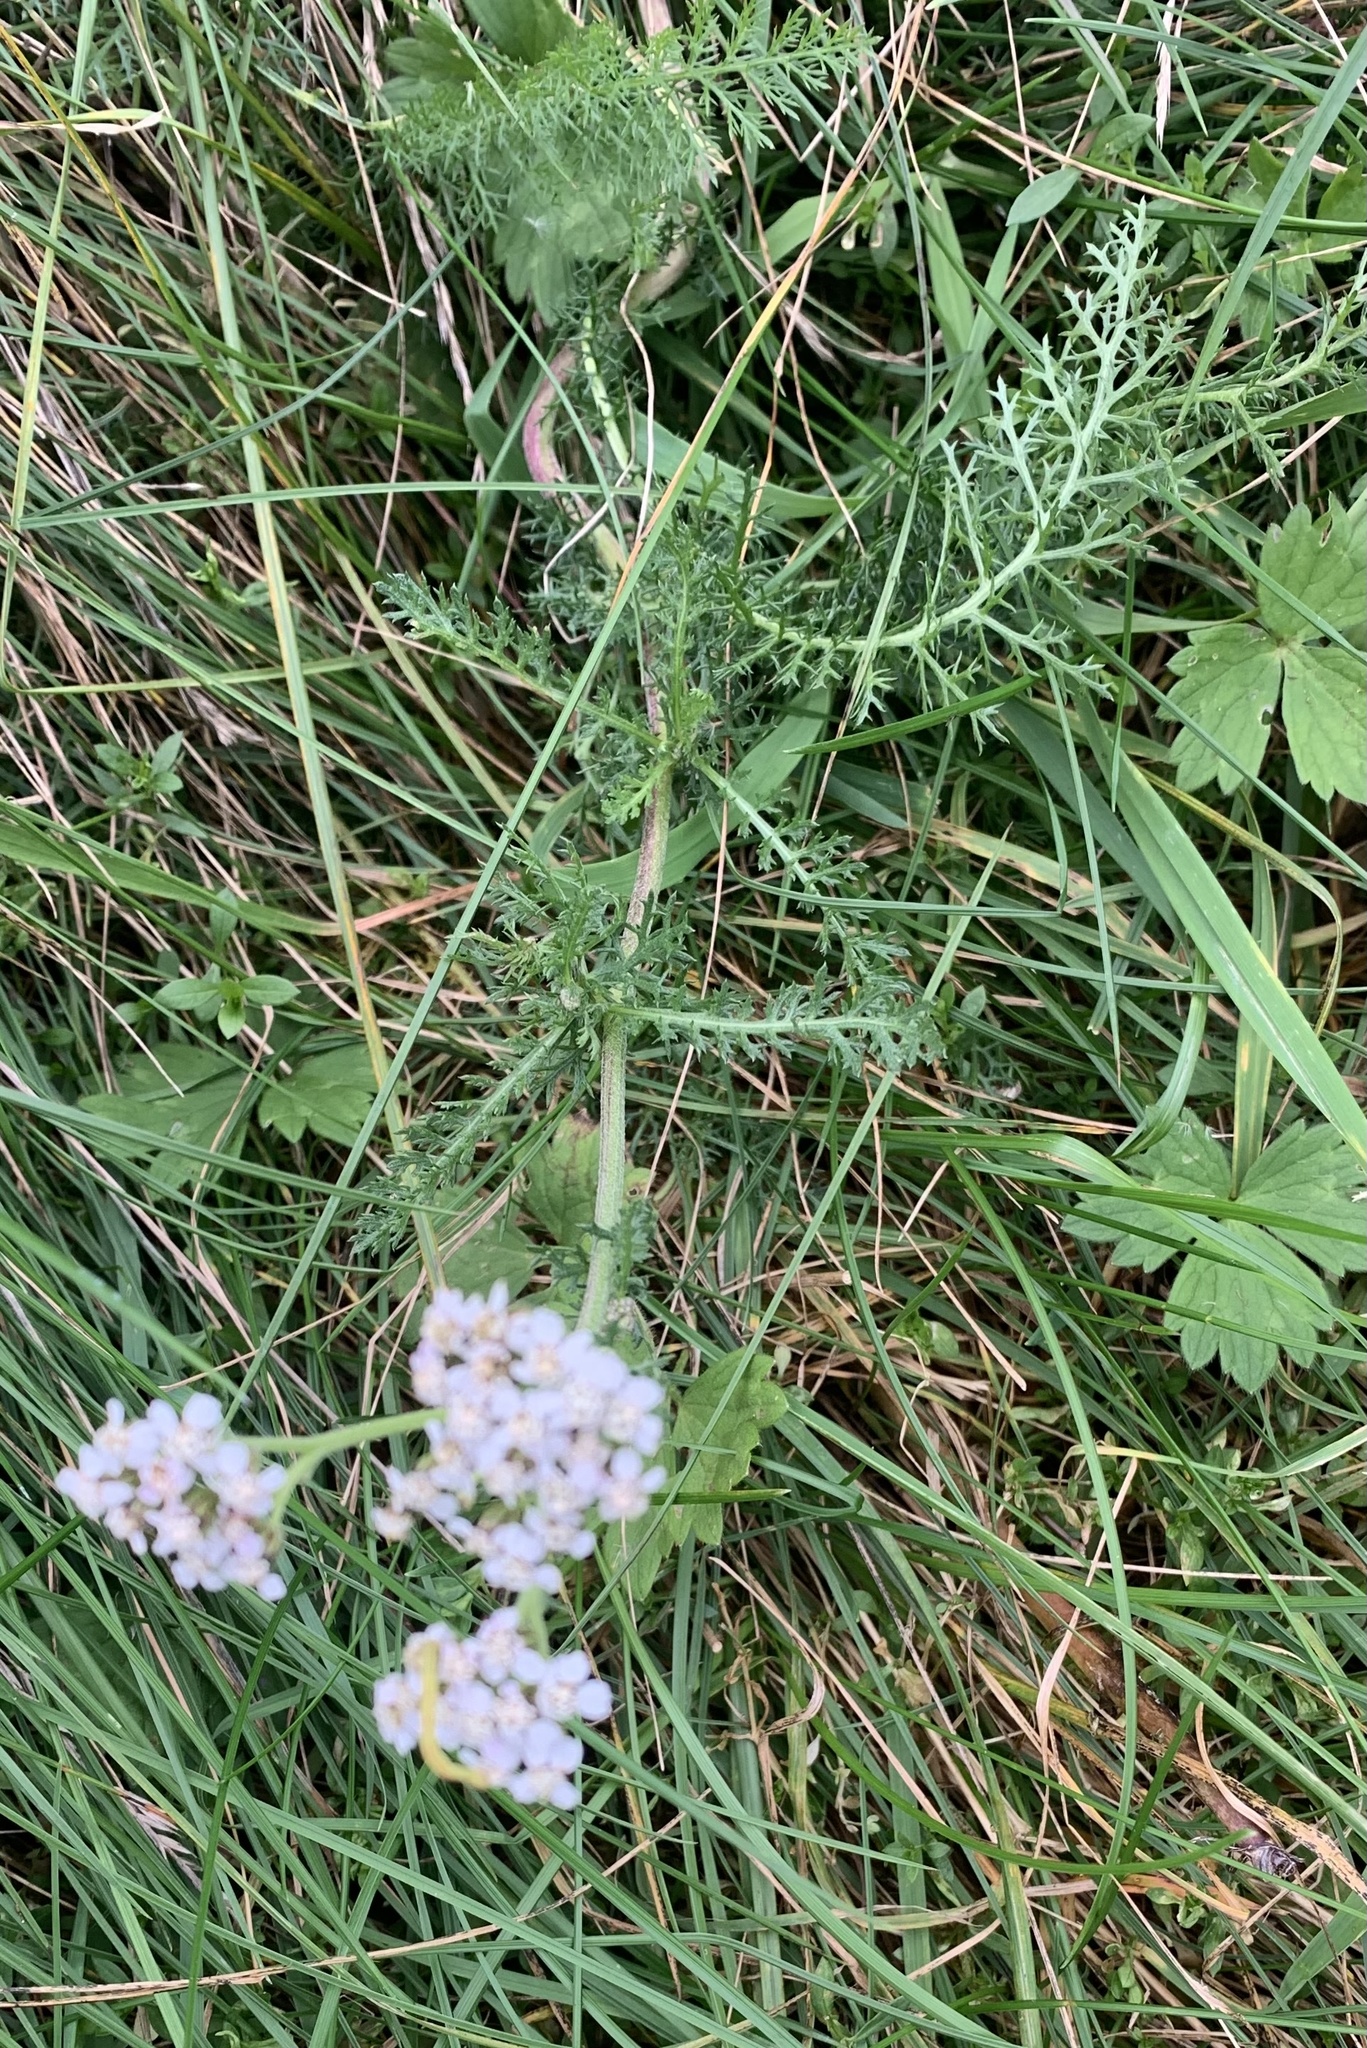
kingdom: Plantae
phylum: Tracheophyta
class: Magnoliopsida
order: Asterales
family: Asteraceae
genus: Achillea
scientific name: Achillea millefolium
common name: Yarrow
